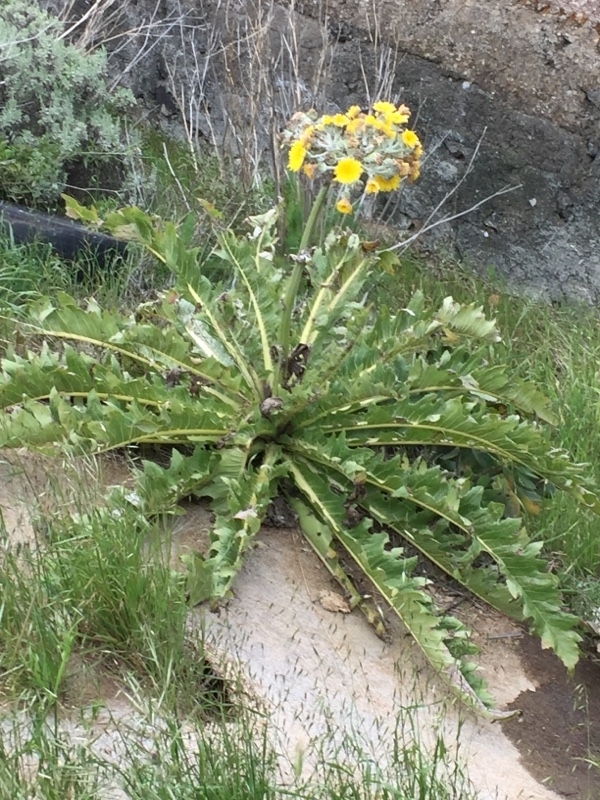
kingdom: Plantae
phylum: Tracheophyta
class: Magnoliopsida
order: Asterales
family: Asteraceae
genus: Sonchus
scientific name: Sonchus acaulis
